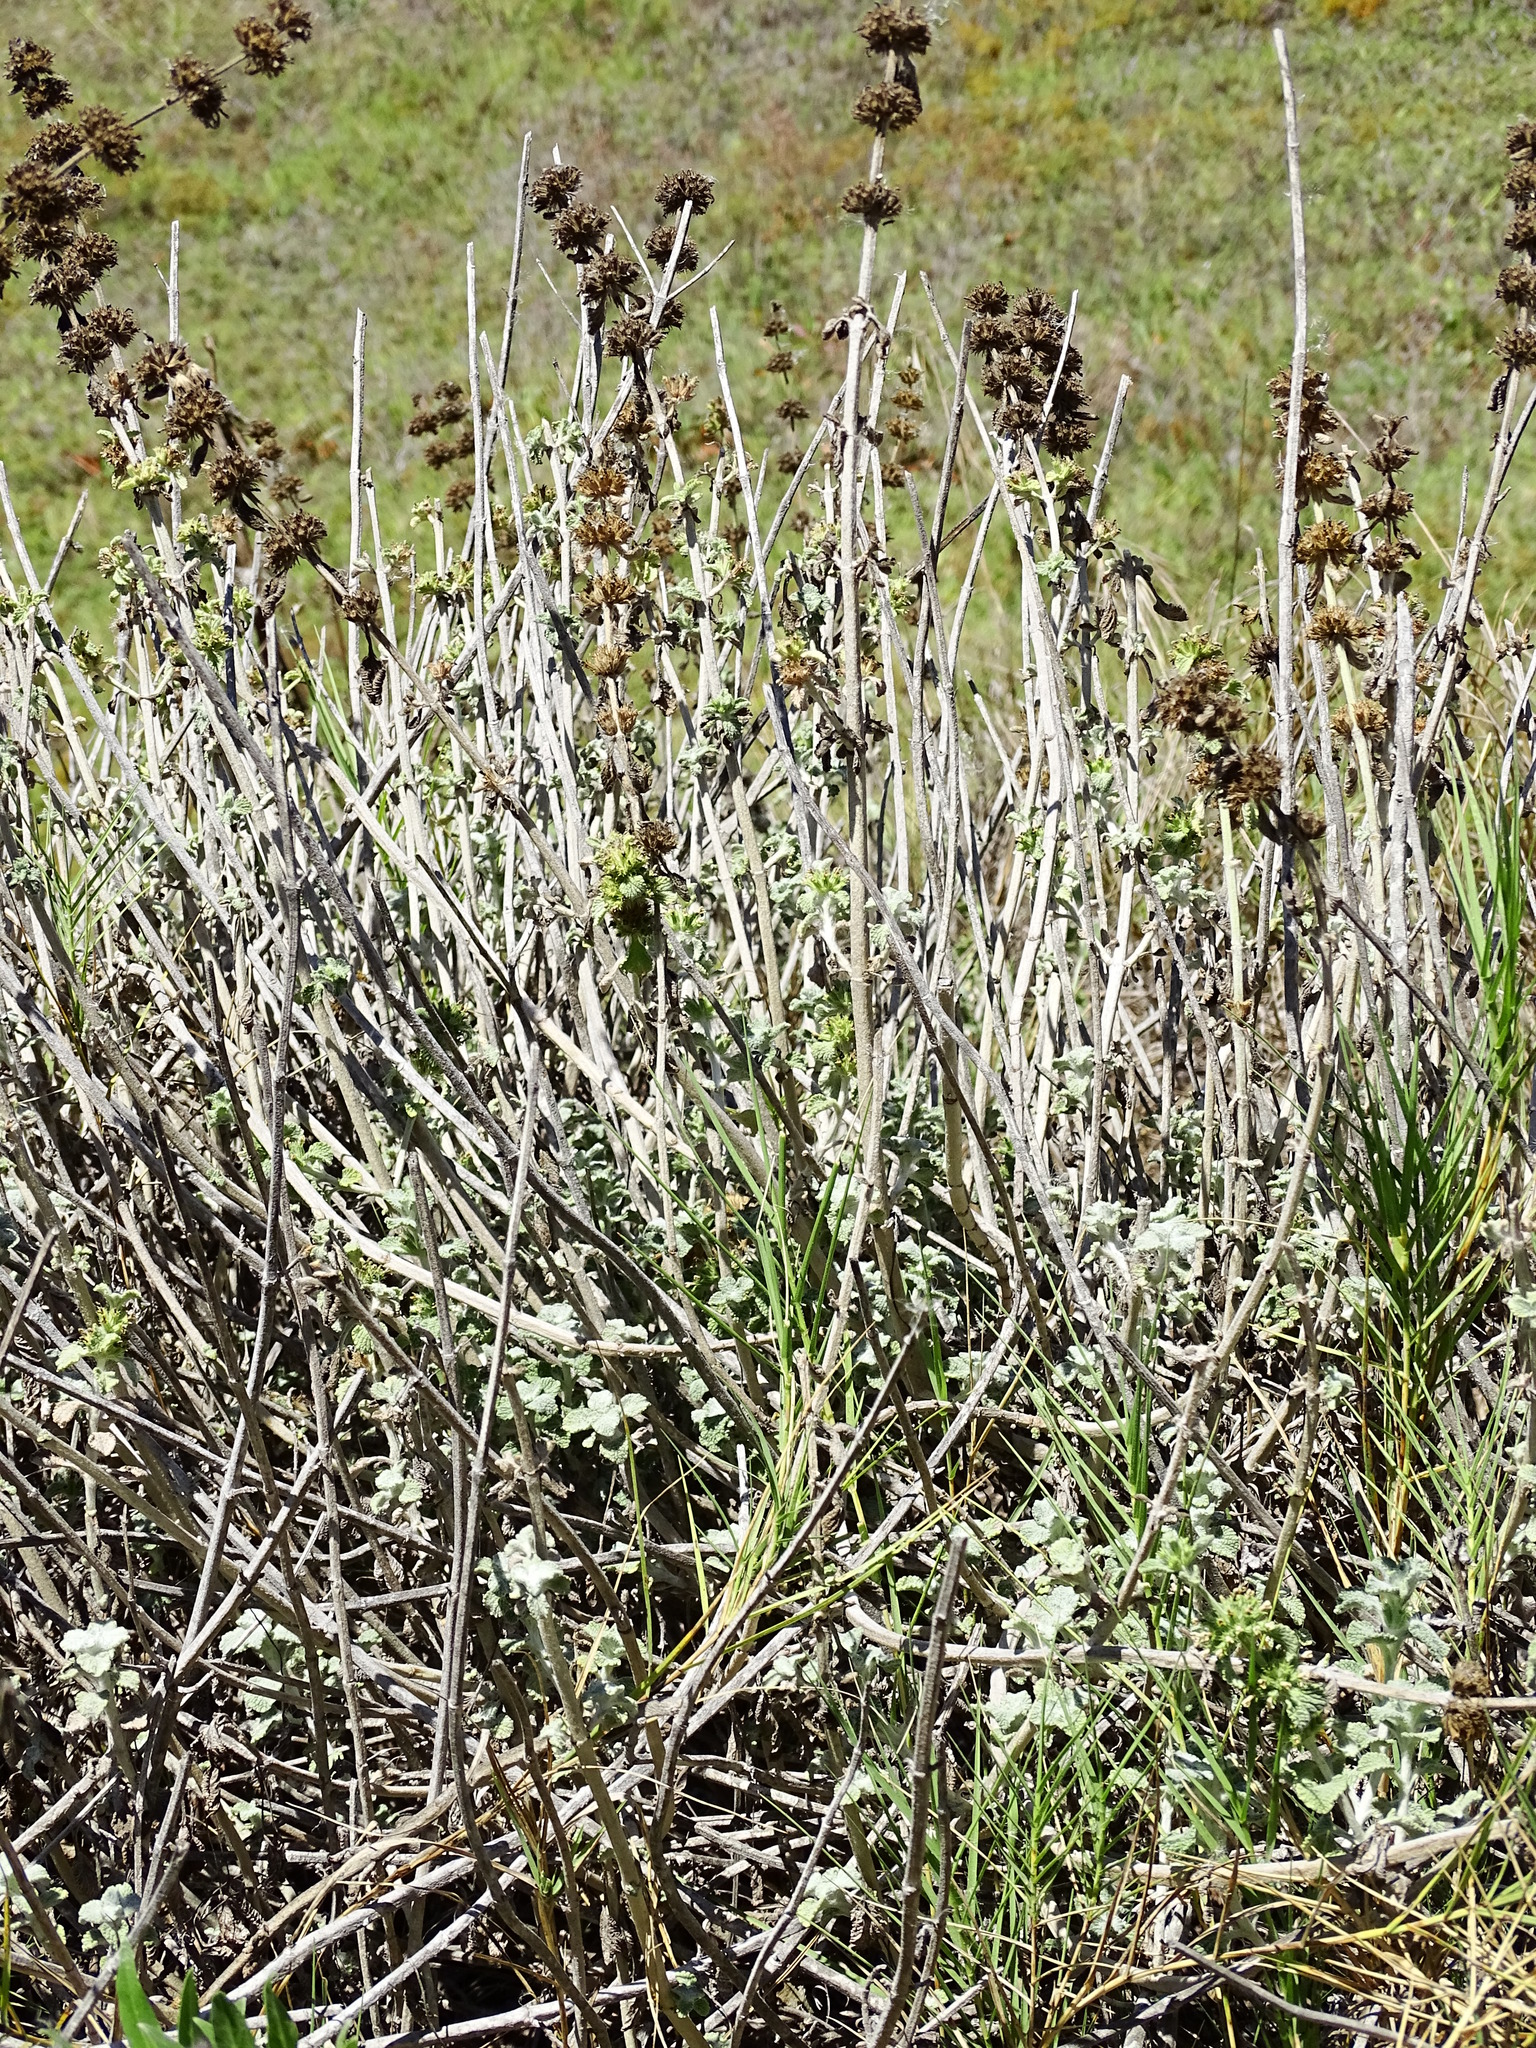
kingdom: Plantae
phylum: Tracheophyta
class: Magnoliopsida
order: Lamiales
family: Lamiaceae
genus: Marrubium
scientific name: Marrubium vulgare
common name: Horehound
